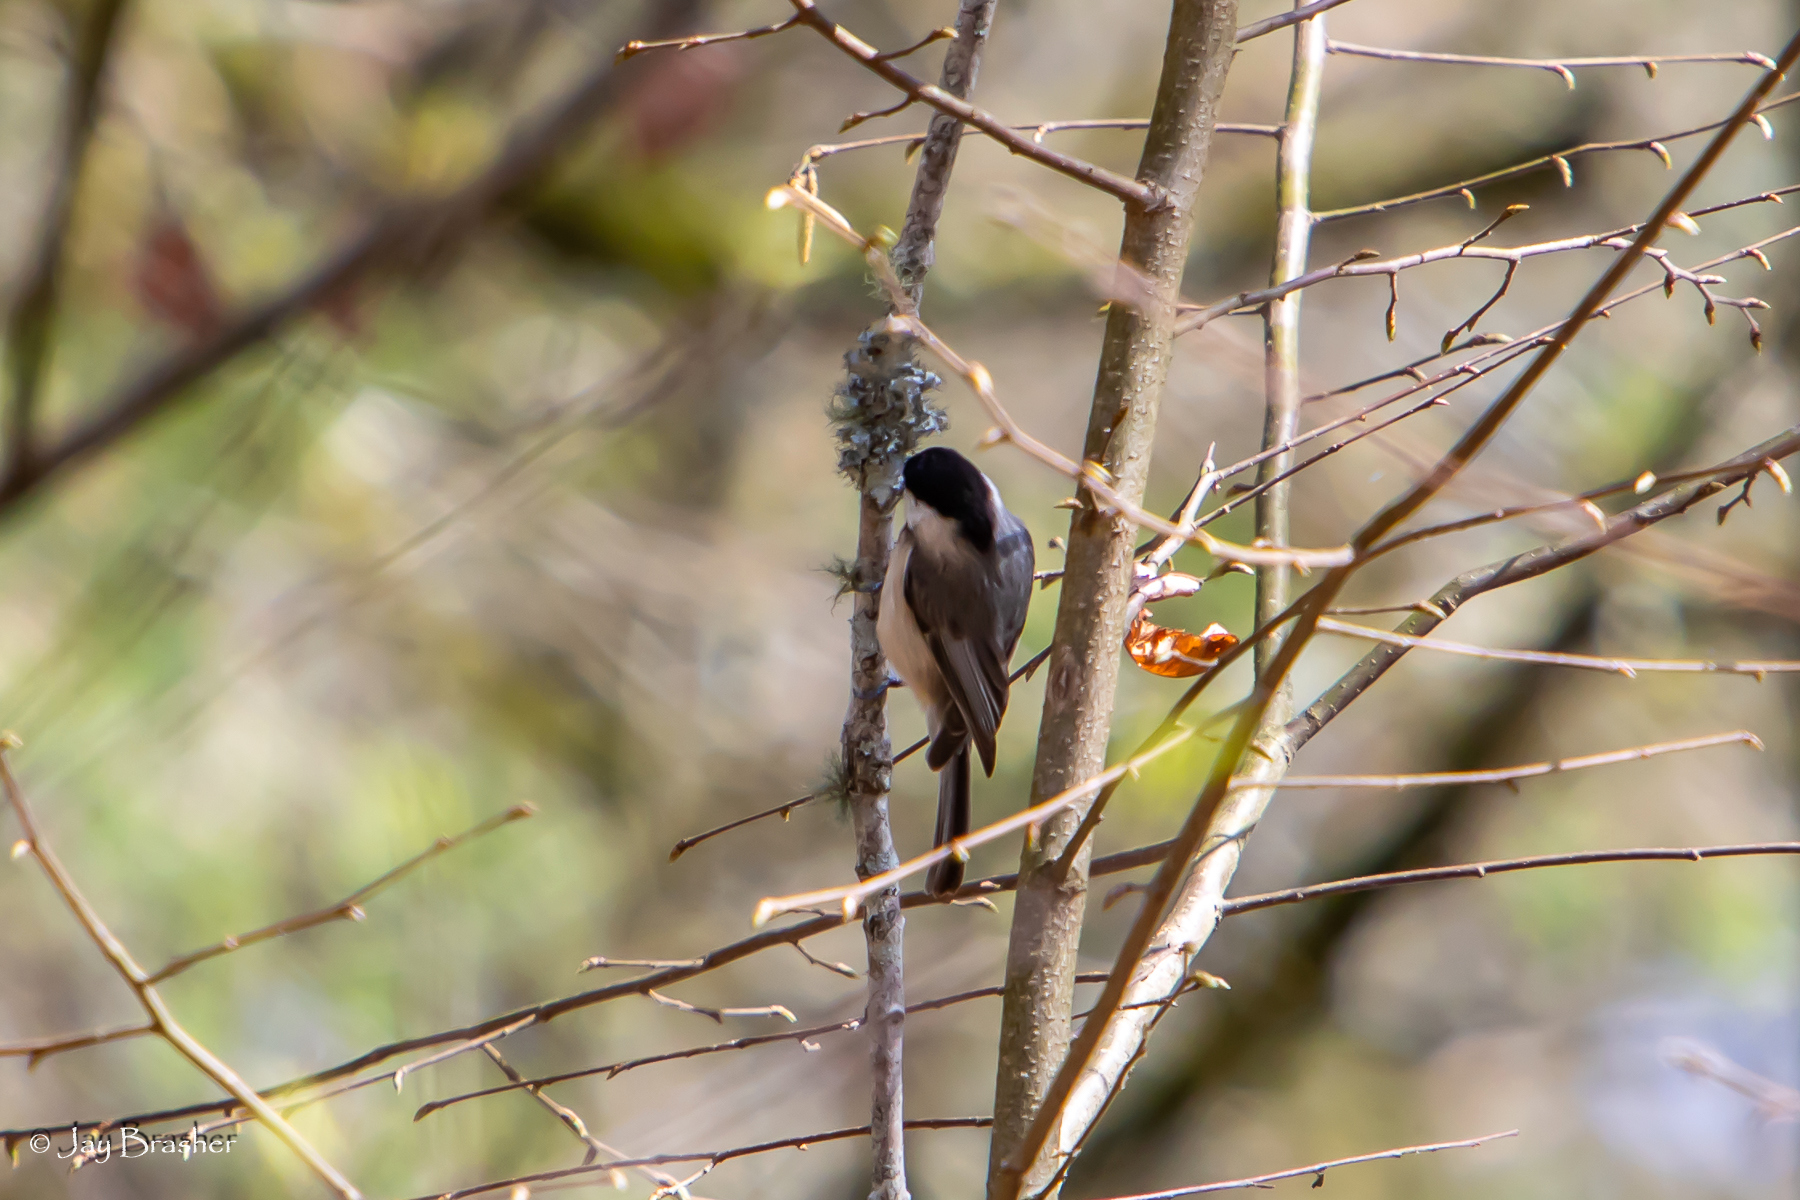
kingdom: Animalia
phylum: Chordata
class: Aves
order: Passeriformes
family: Paridae
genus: Poecile
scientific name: Poecile carolinensis
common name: Carolina chickadee
